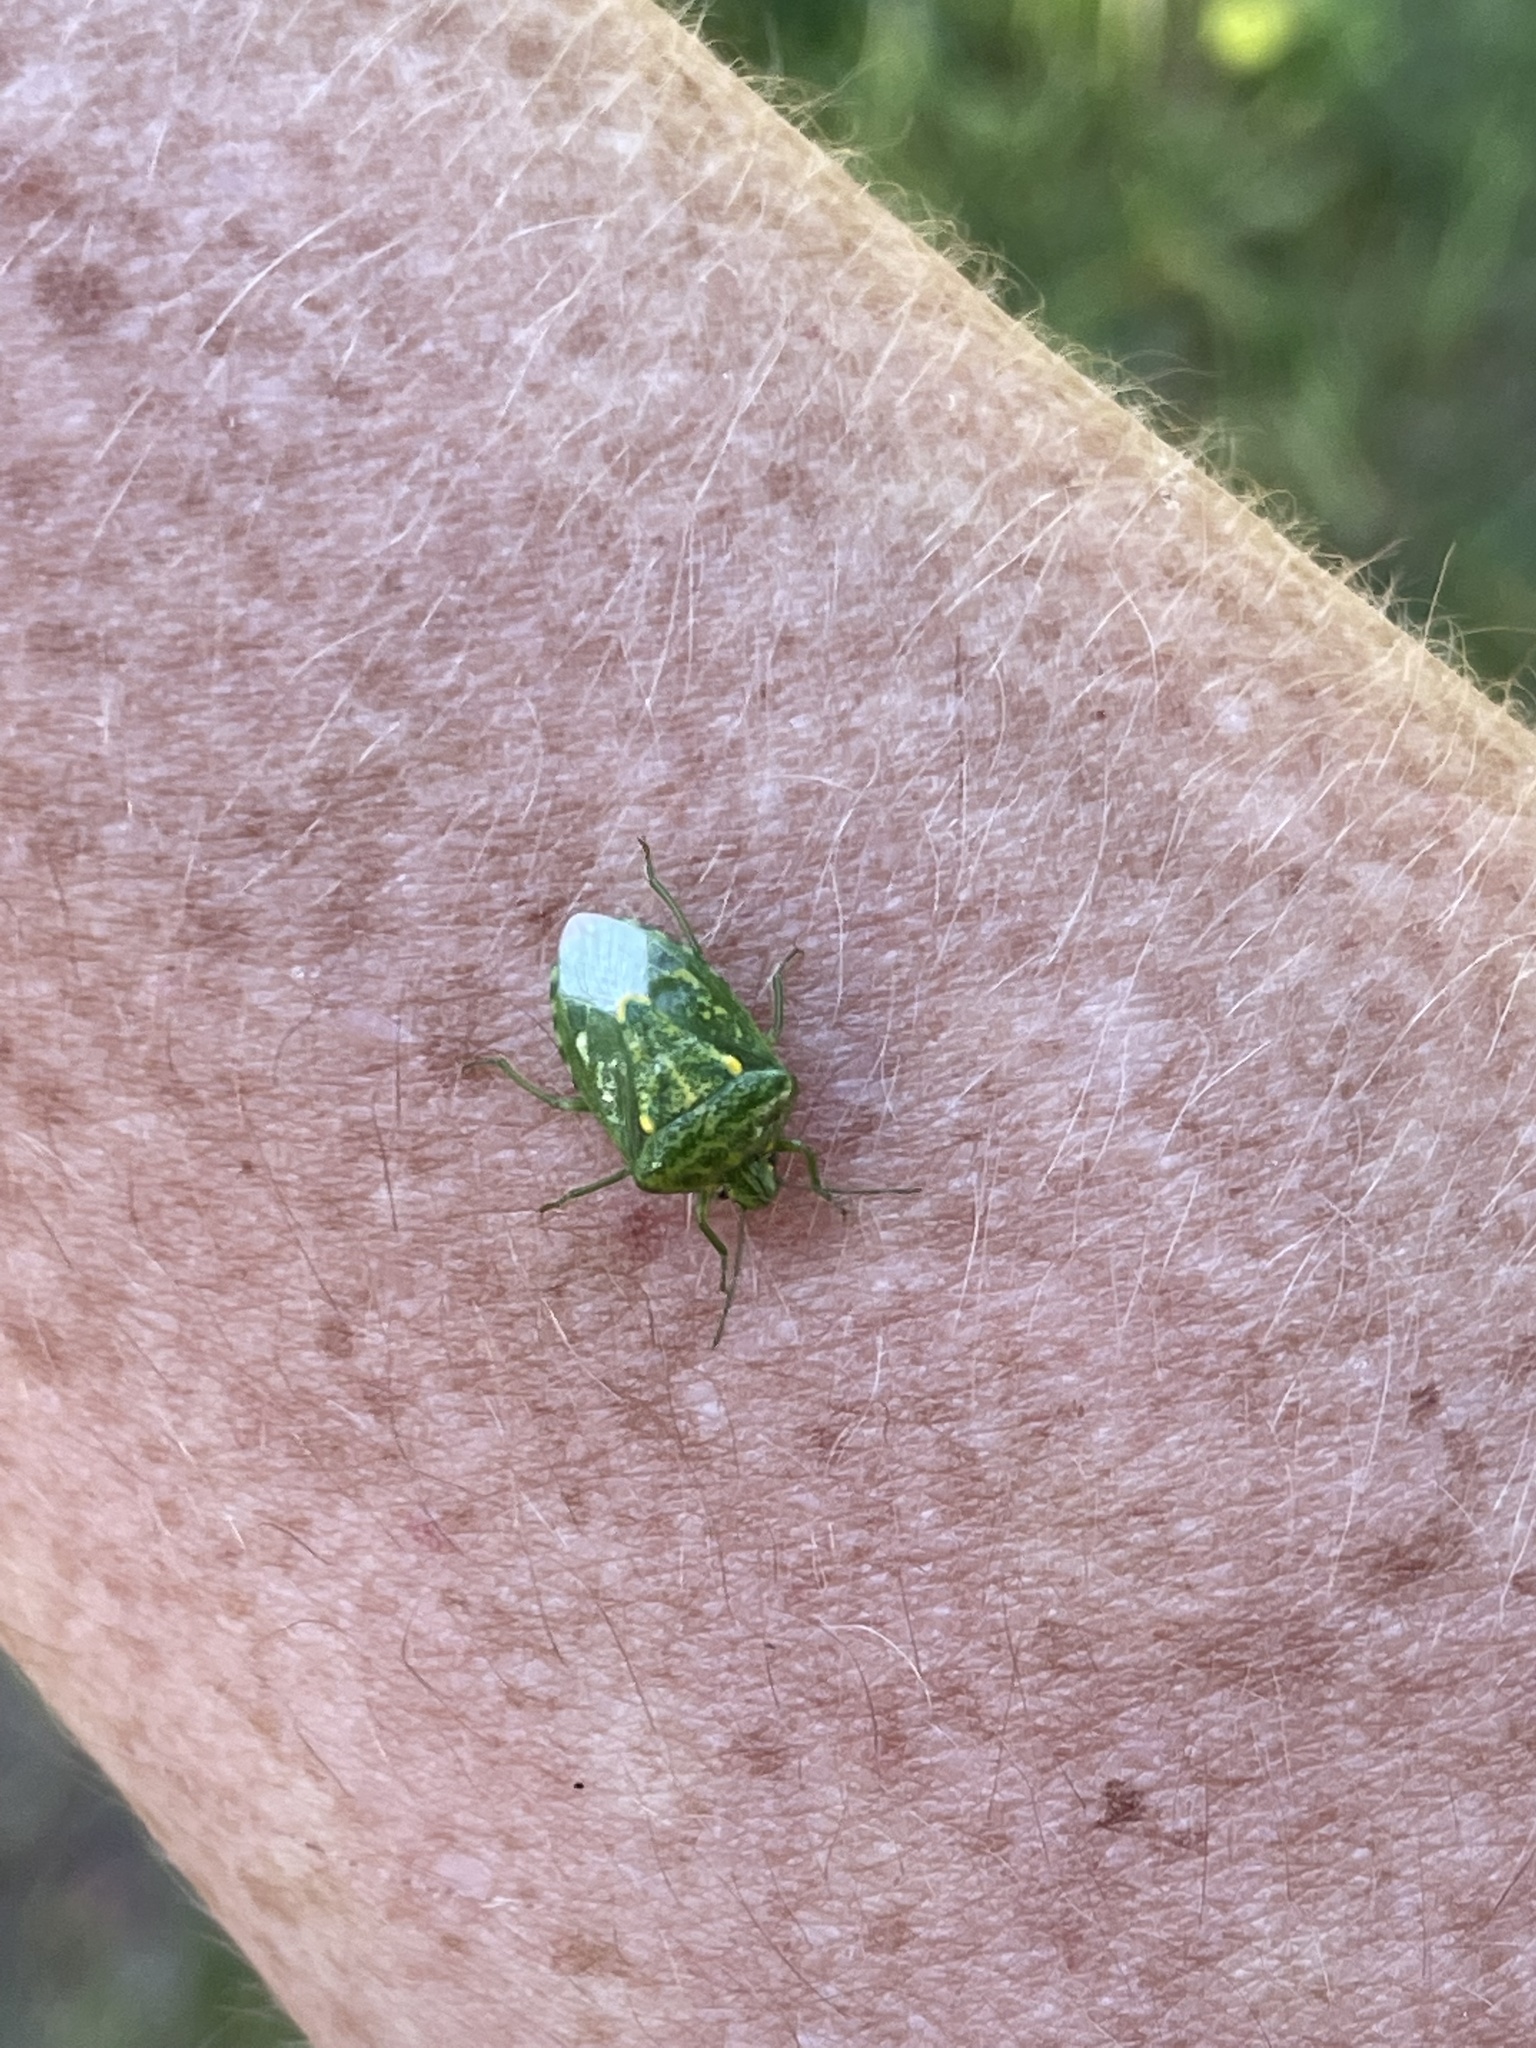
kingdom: Animalia
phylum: Arthropoda
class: Insecta
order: Hemiptera
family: Pentatomidae
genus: Banasa
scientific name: Banasa euchlora
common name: Cedar berry bug
